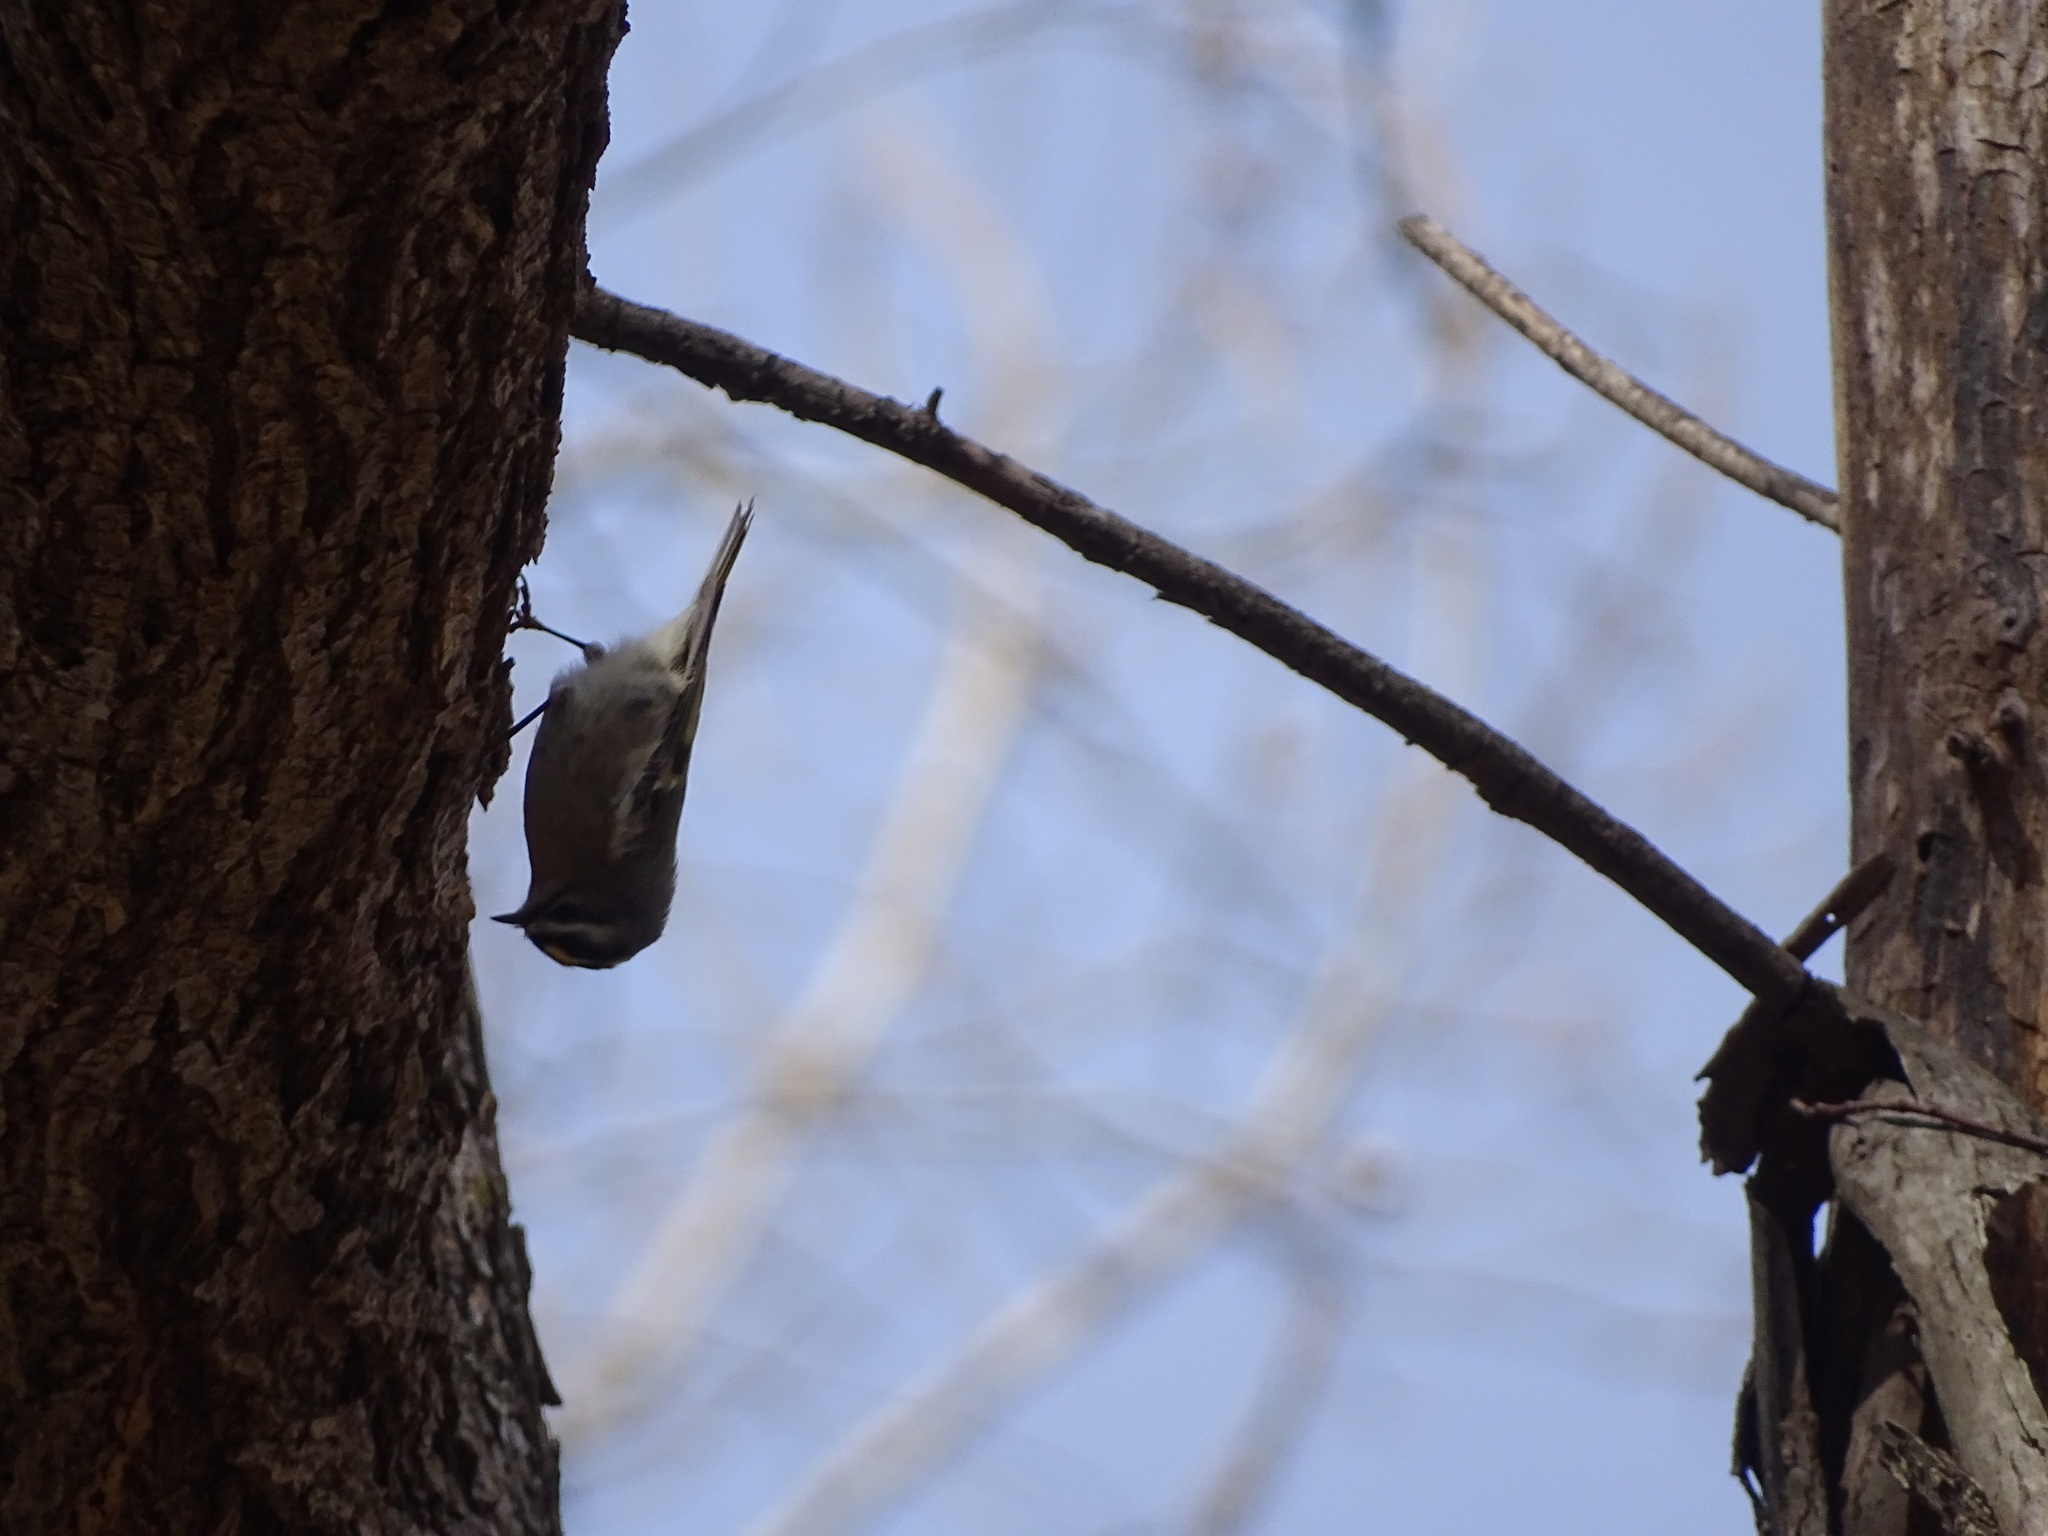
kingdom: Animalia
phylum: Chordata
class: Aves
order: Passeriformes
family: Regulidae
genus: Regulus
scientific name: Regulus satrapa
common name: Golden-crowned kinglet
